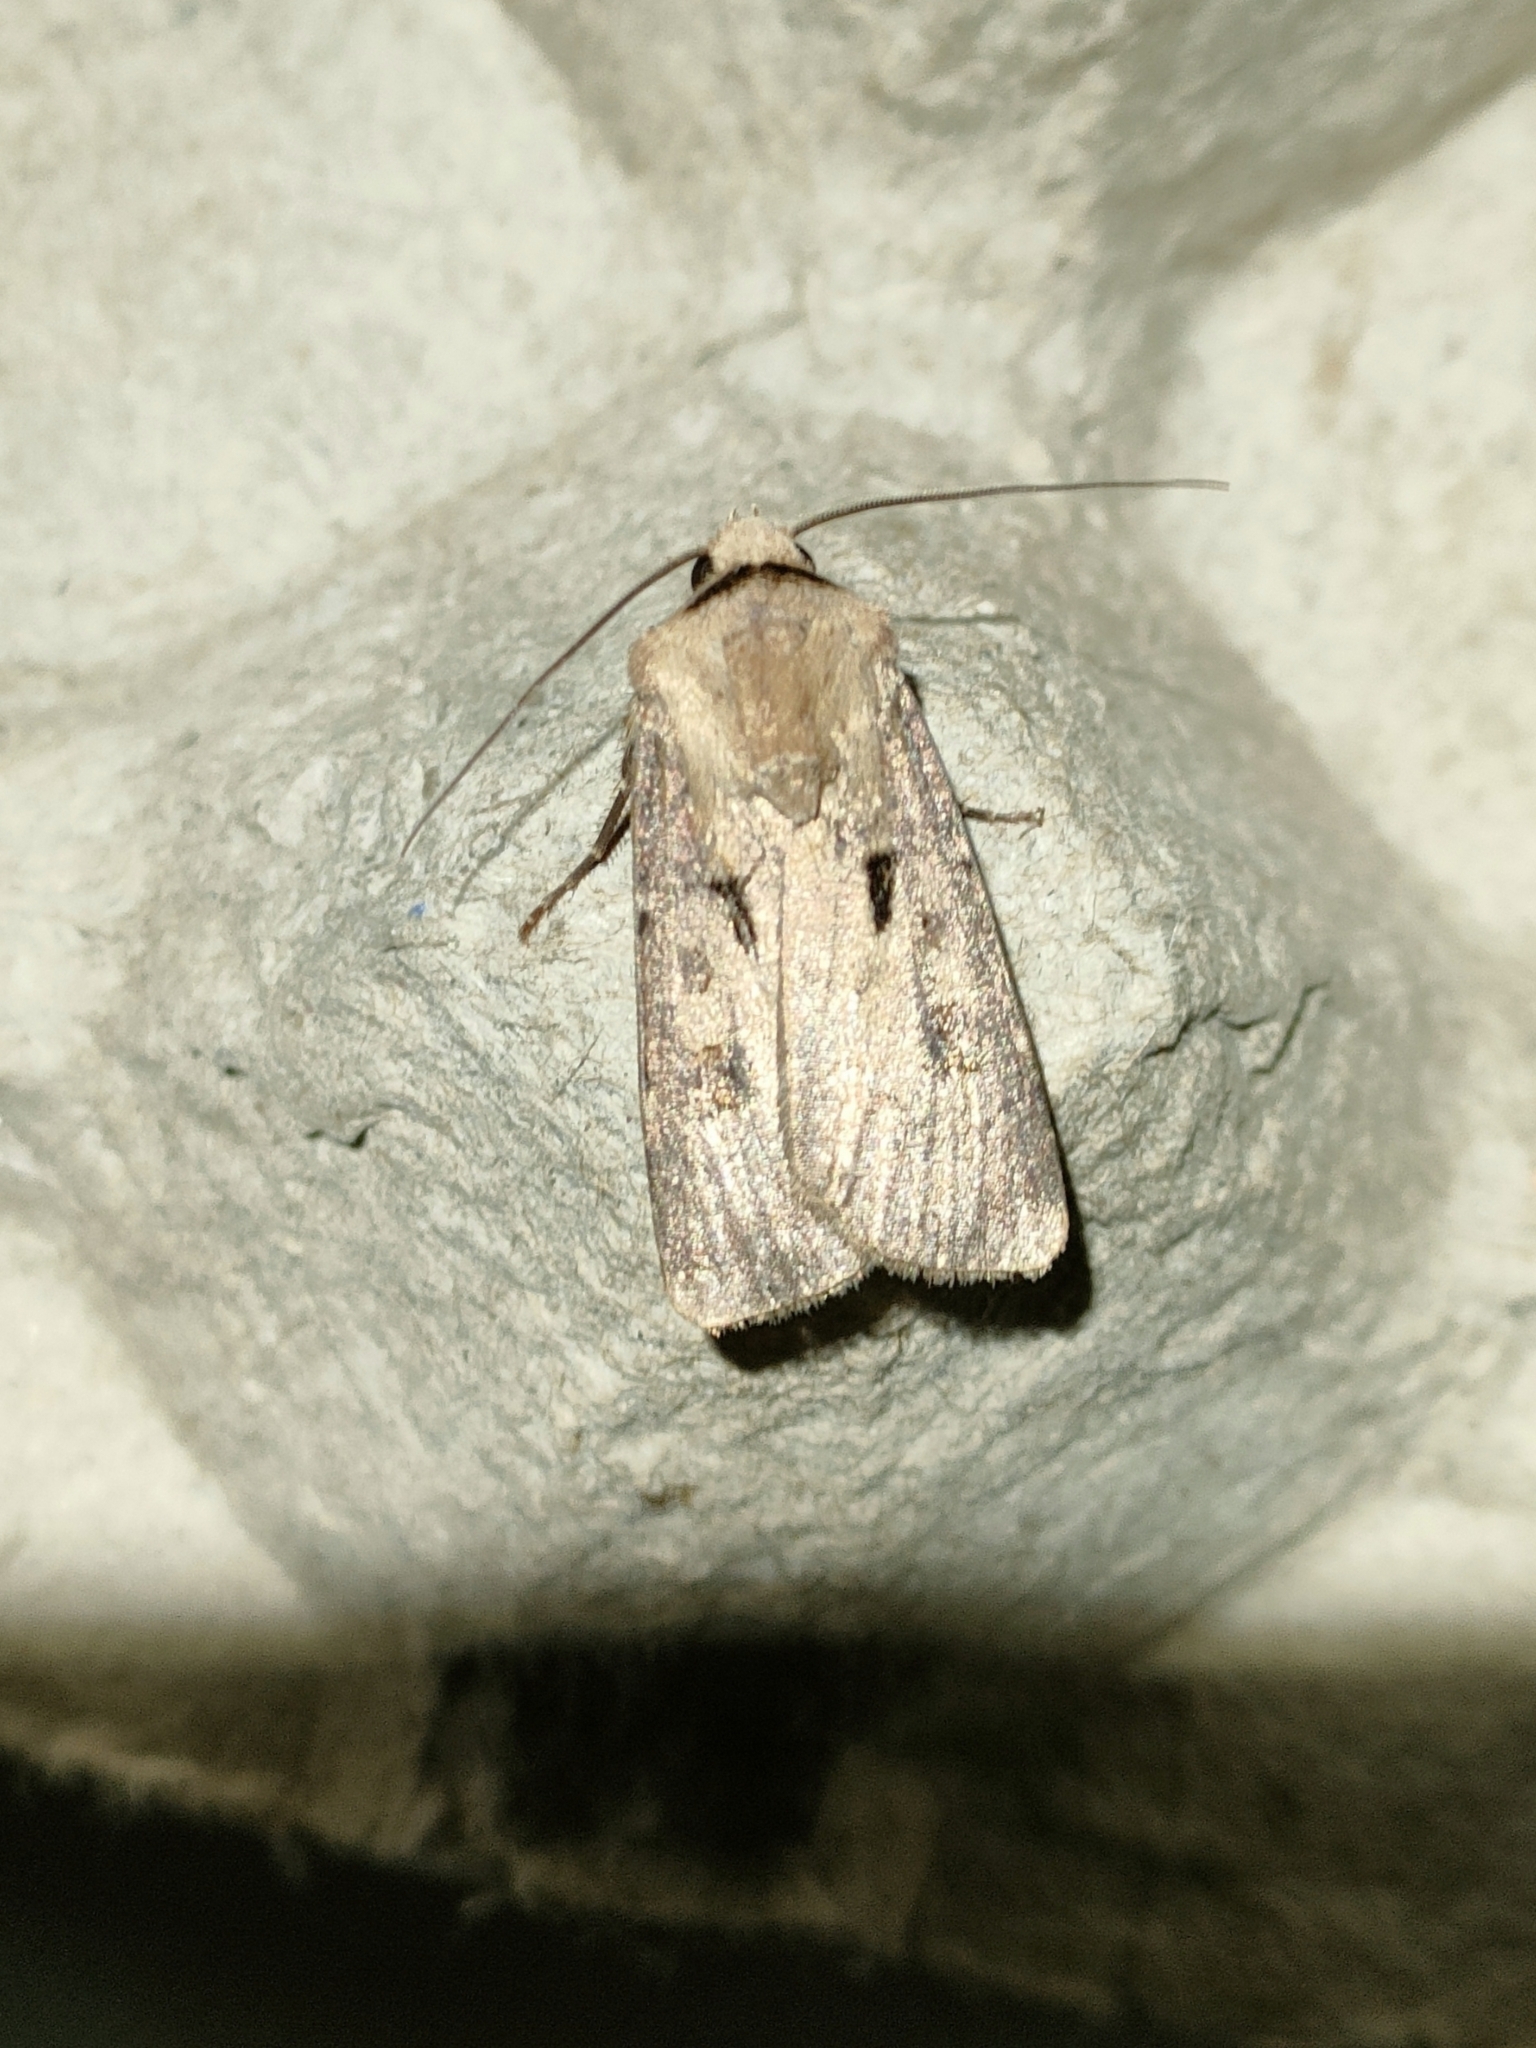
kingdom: Animalia
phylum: Arthropoda
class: Insecta
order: Lepidoptera
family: Noctuidae
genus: Agrotis
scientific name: Agrotis exclamationis
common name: Heart and dart
